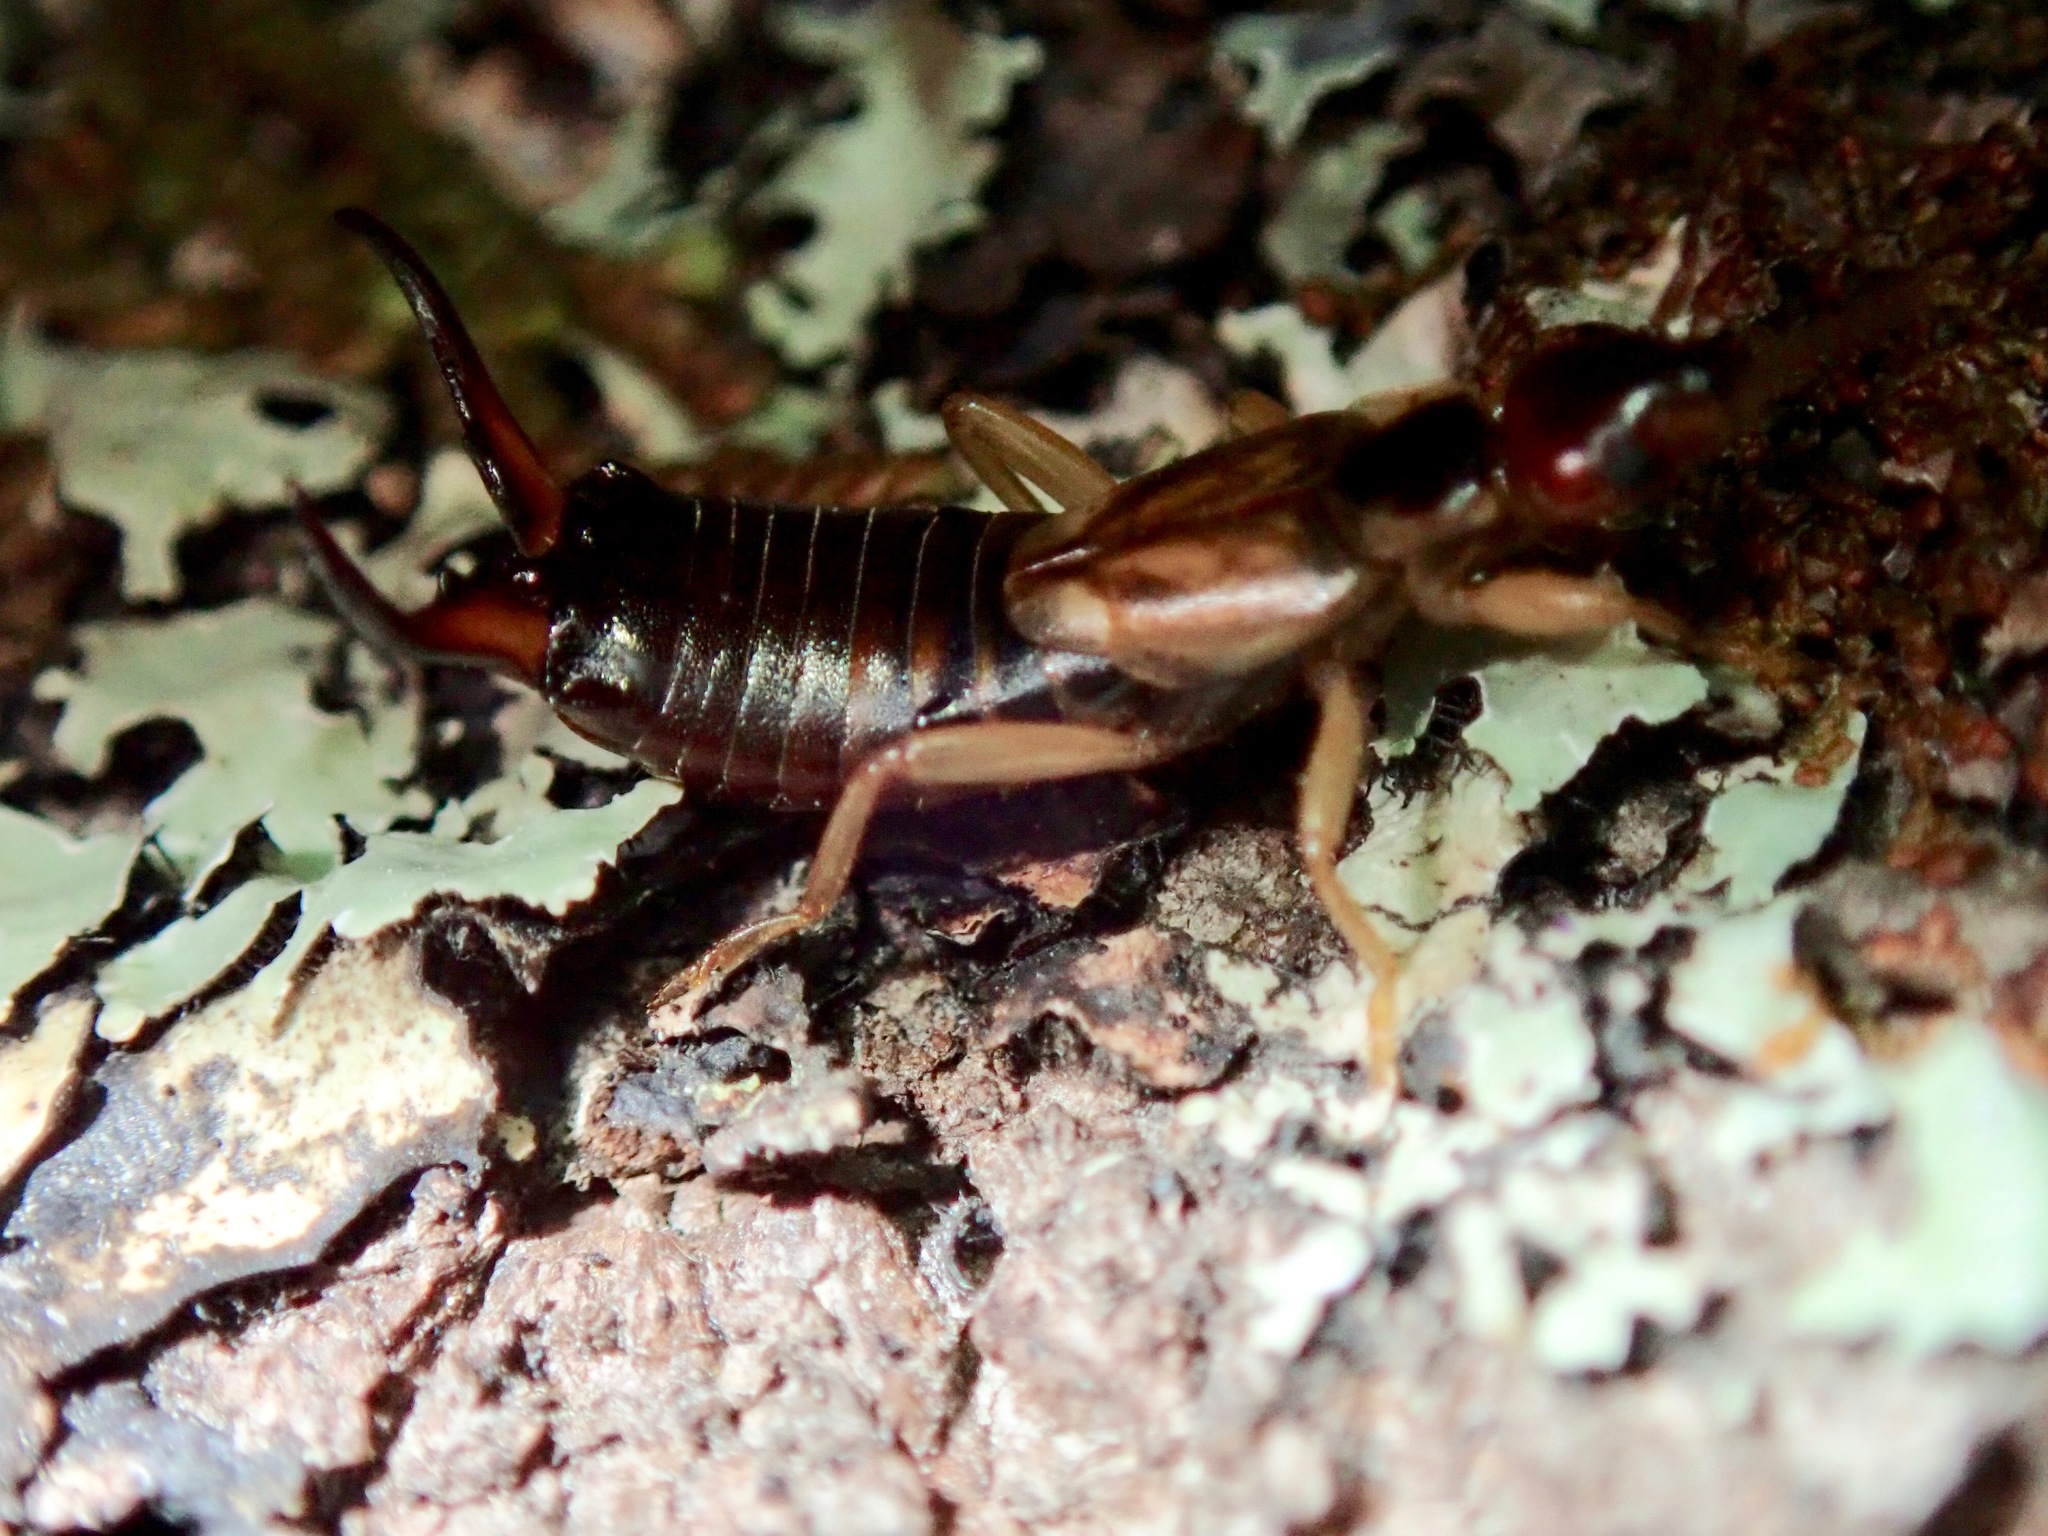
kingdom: Animalia
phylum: Arthropoda
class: Insecta
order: Dermaptera
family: Forficulidae
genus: Forficula
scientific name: Forficula
